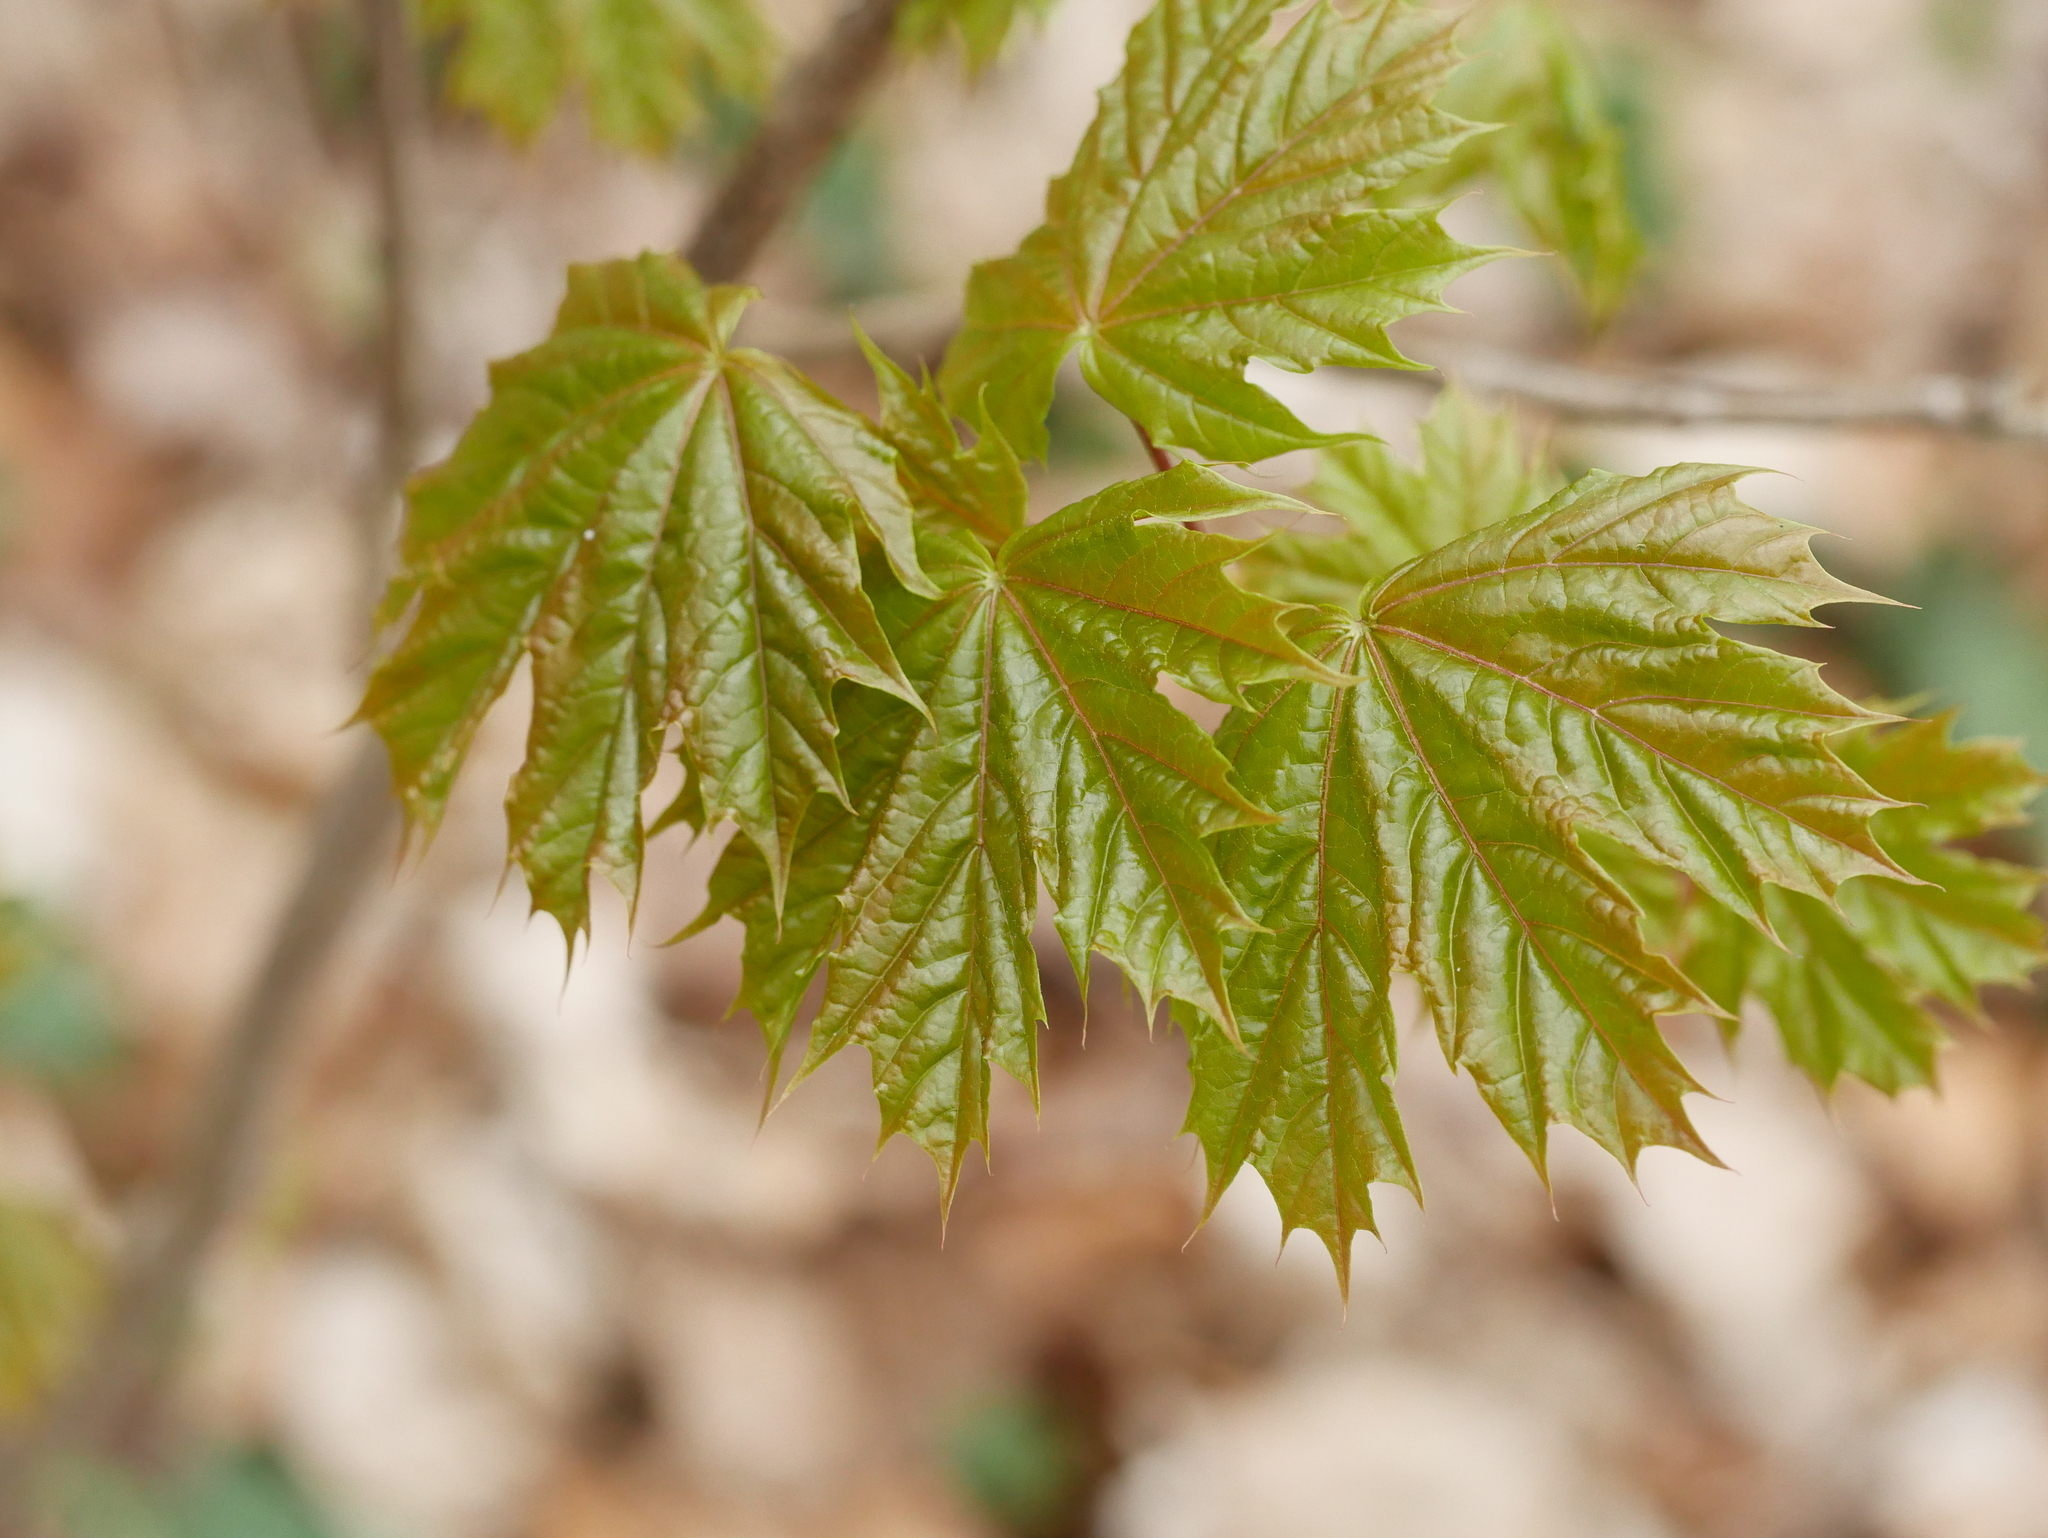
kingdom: Plantae
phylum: Tracheophyta
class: Magnoliopsida
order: Sapindales
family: Sapindaceae
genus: Acer
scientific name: Acer platanoides
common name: Norway maple
